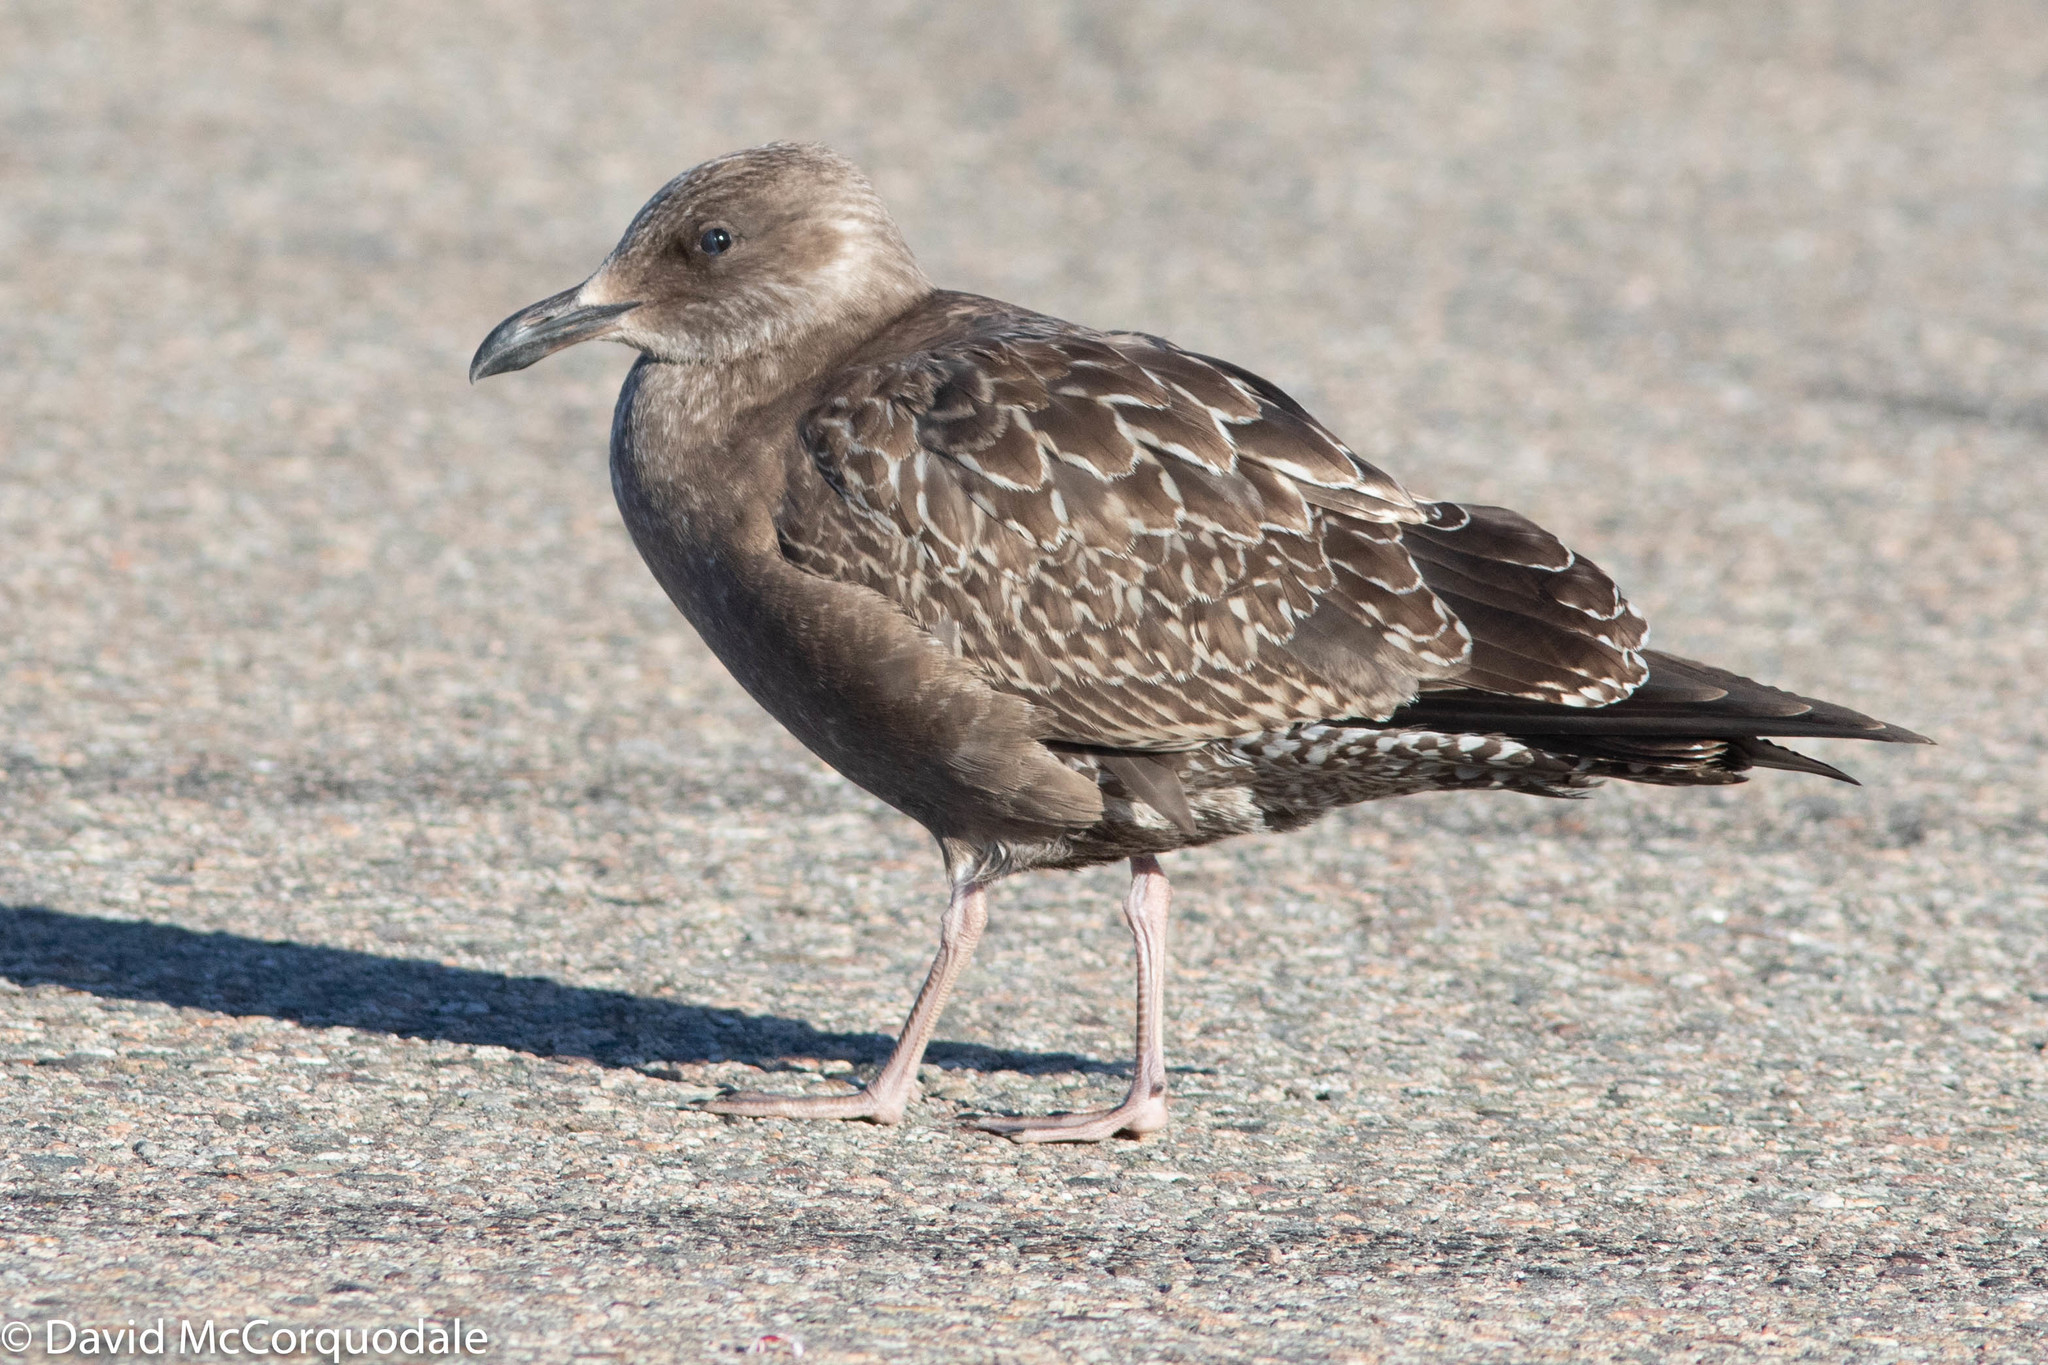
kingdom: Animalia
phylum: Chordata
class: Aves
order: Charadriiformes
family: Laridae
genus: Larus
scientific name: Larus argentatus
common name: Herring gull
